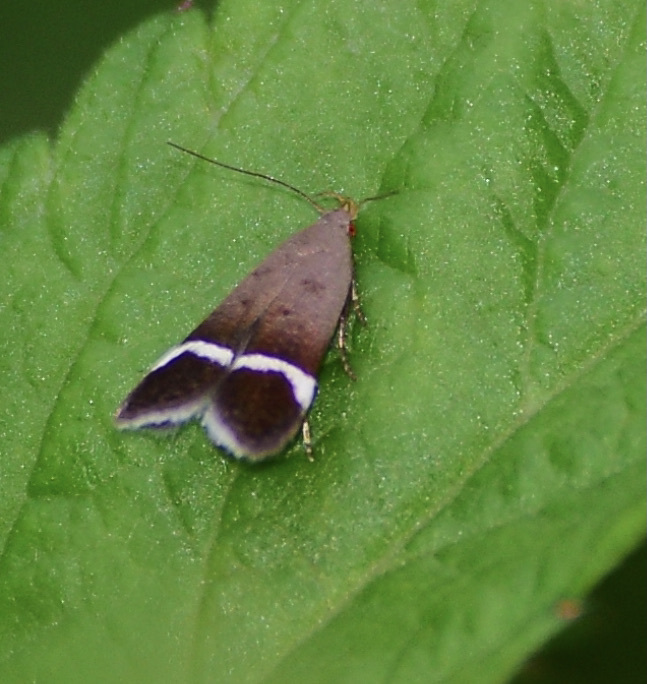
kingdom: Animalia
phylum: Arthropoda
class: Insecta
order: Lepidoptera
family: Gelechiidae
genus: Anacampsis
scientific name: Anacampsis agrimoniella
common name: Agrimony anacampsis moth
